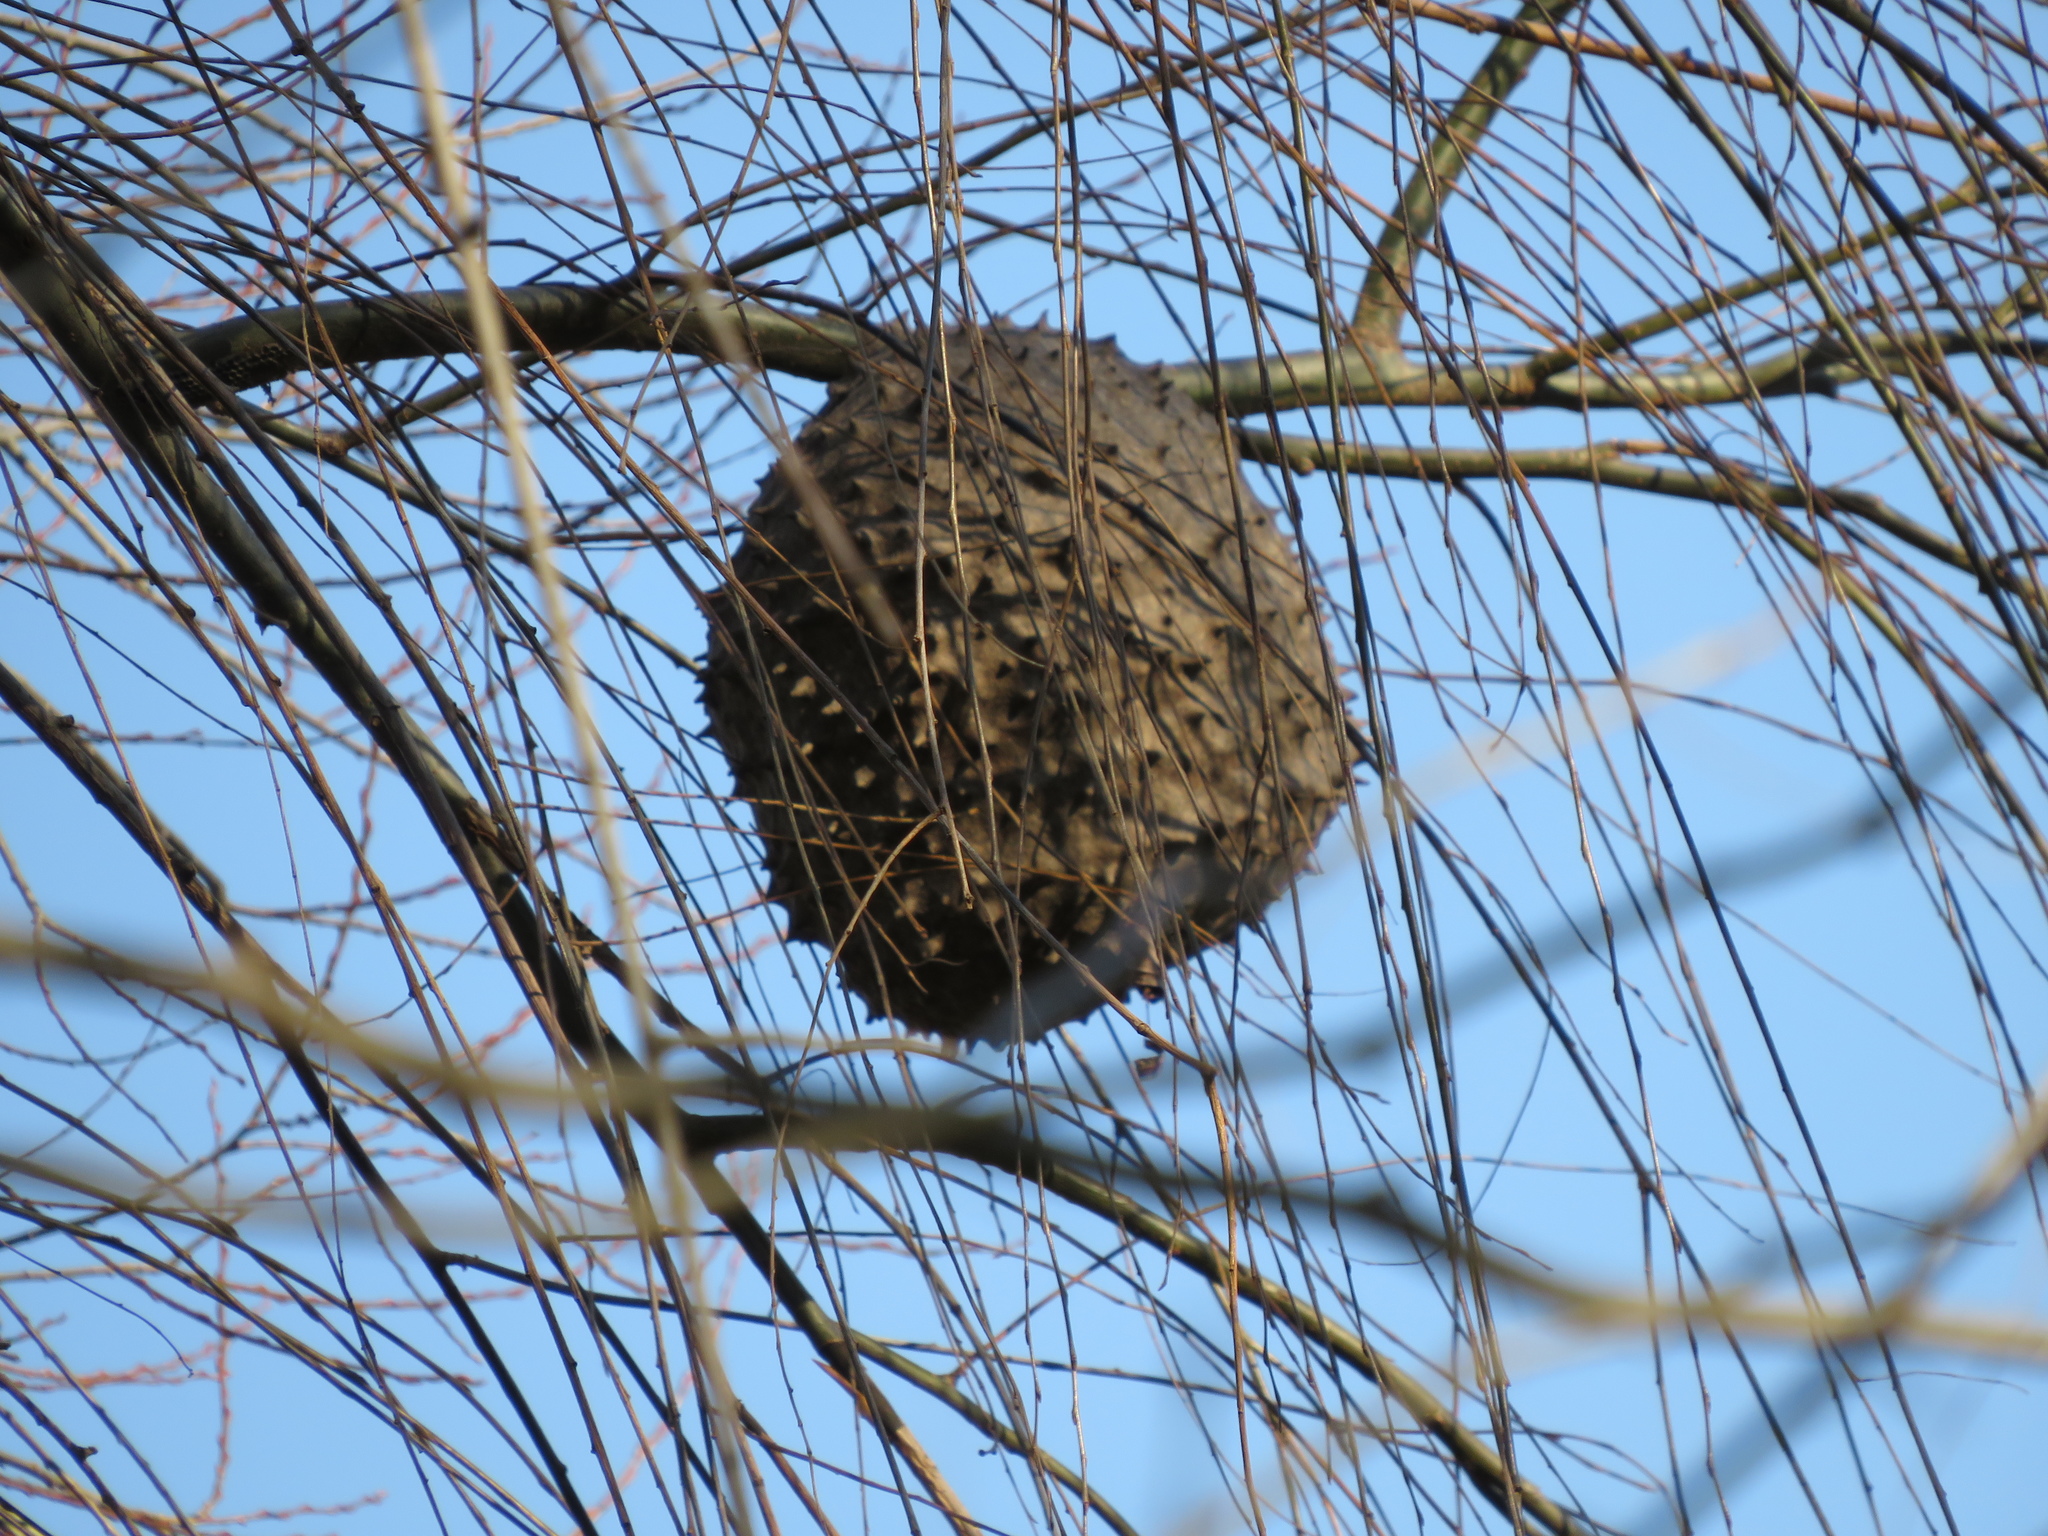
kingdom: Animalia
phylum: Arthropoda
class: Insecta
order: Hymenoptera
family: Eumenidae
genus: Polybia
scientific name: Polybia scutellaris
